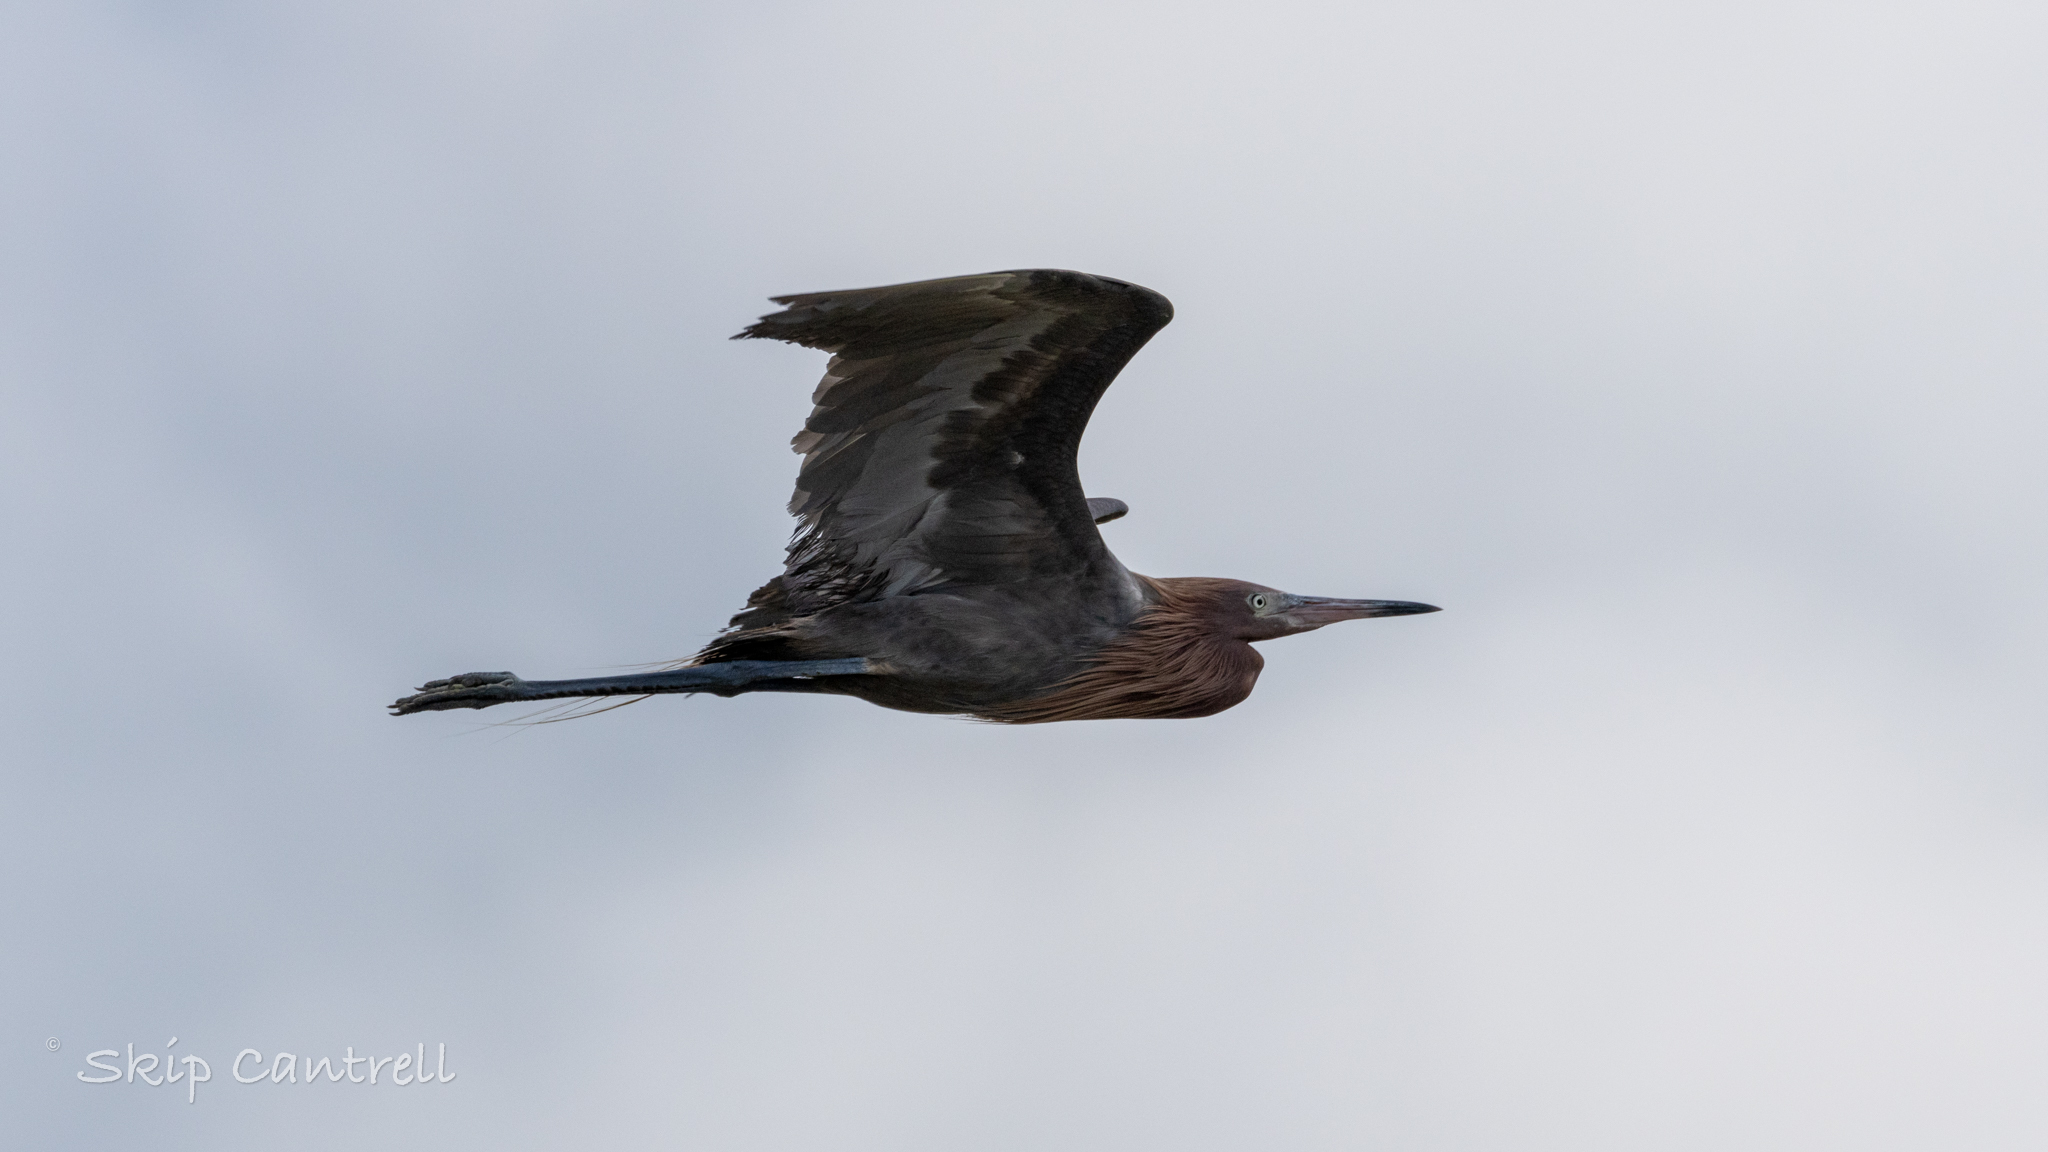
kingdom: Animalia
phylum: Chordata
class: Aves
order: Pelecaniformes
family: Ardeidae
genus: Egretta
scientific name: Egretta rufescens
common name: Reddish egret
